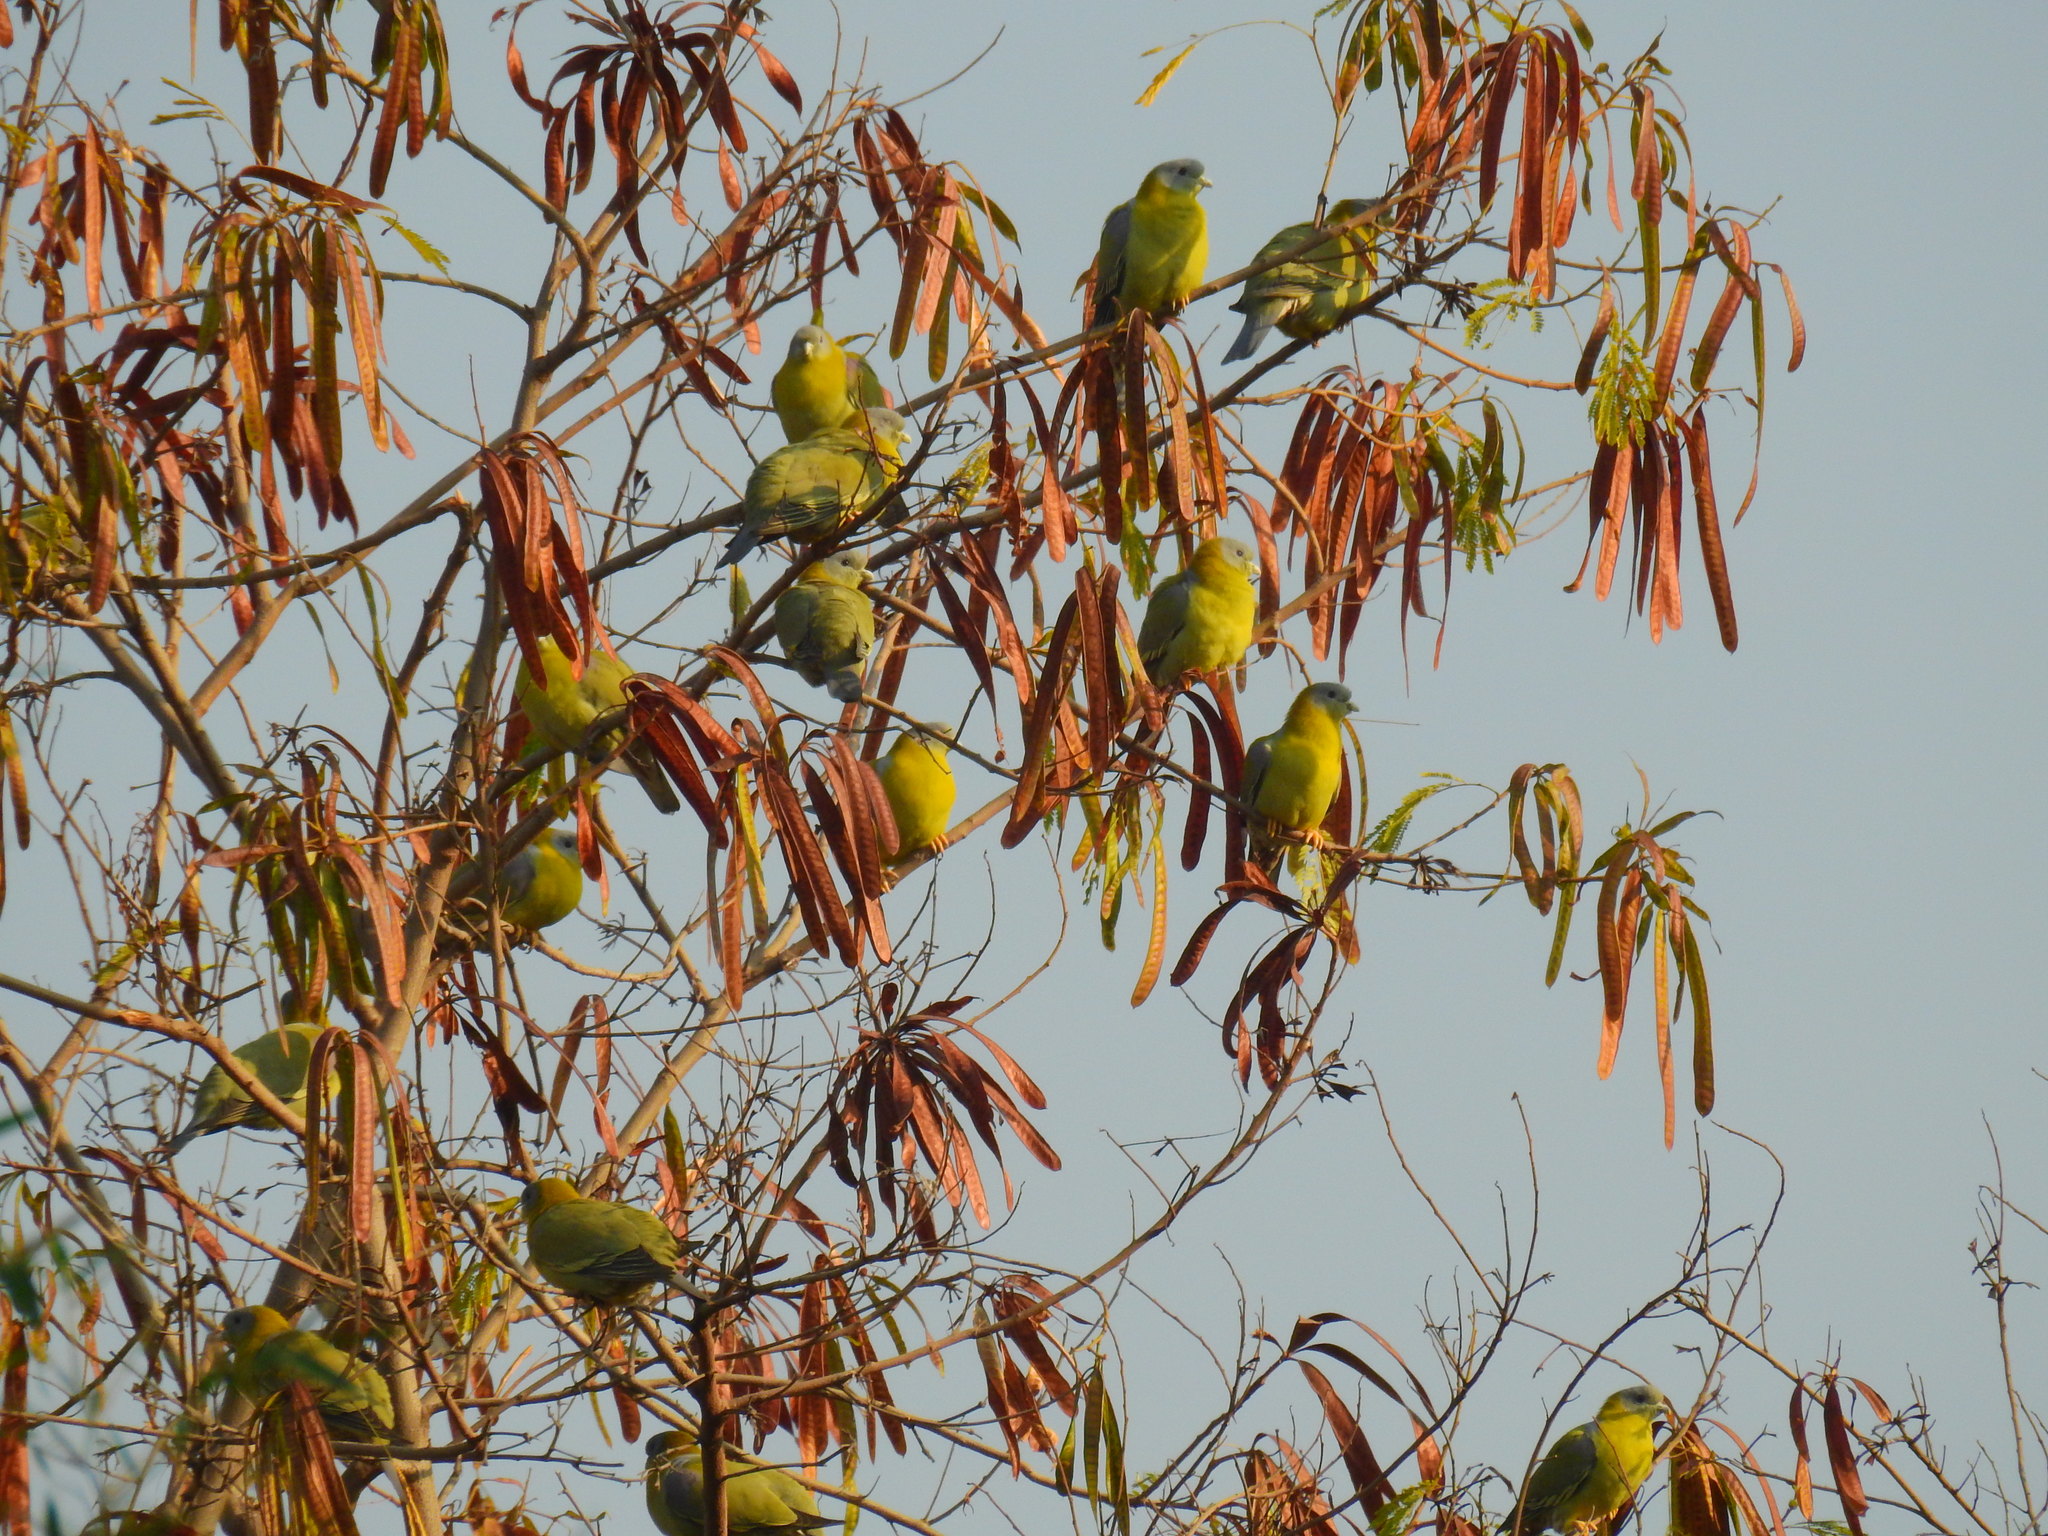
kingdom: Plantae
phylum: Tracheophyta
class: Magnoliopsida
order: Fabales
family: Fabaceae
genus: Leucaena
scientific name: Leucaena leucocephala
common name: White leadtree
